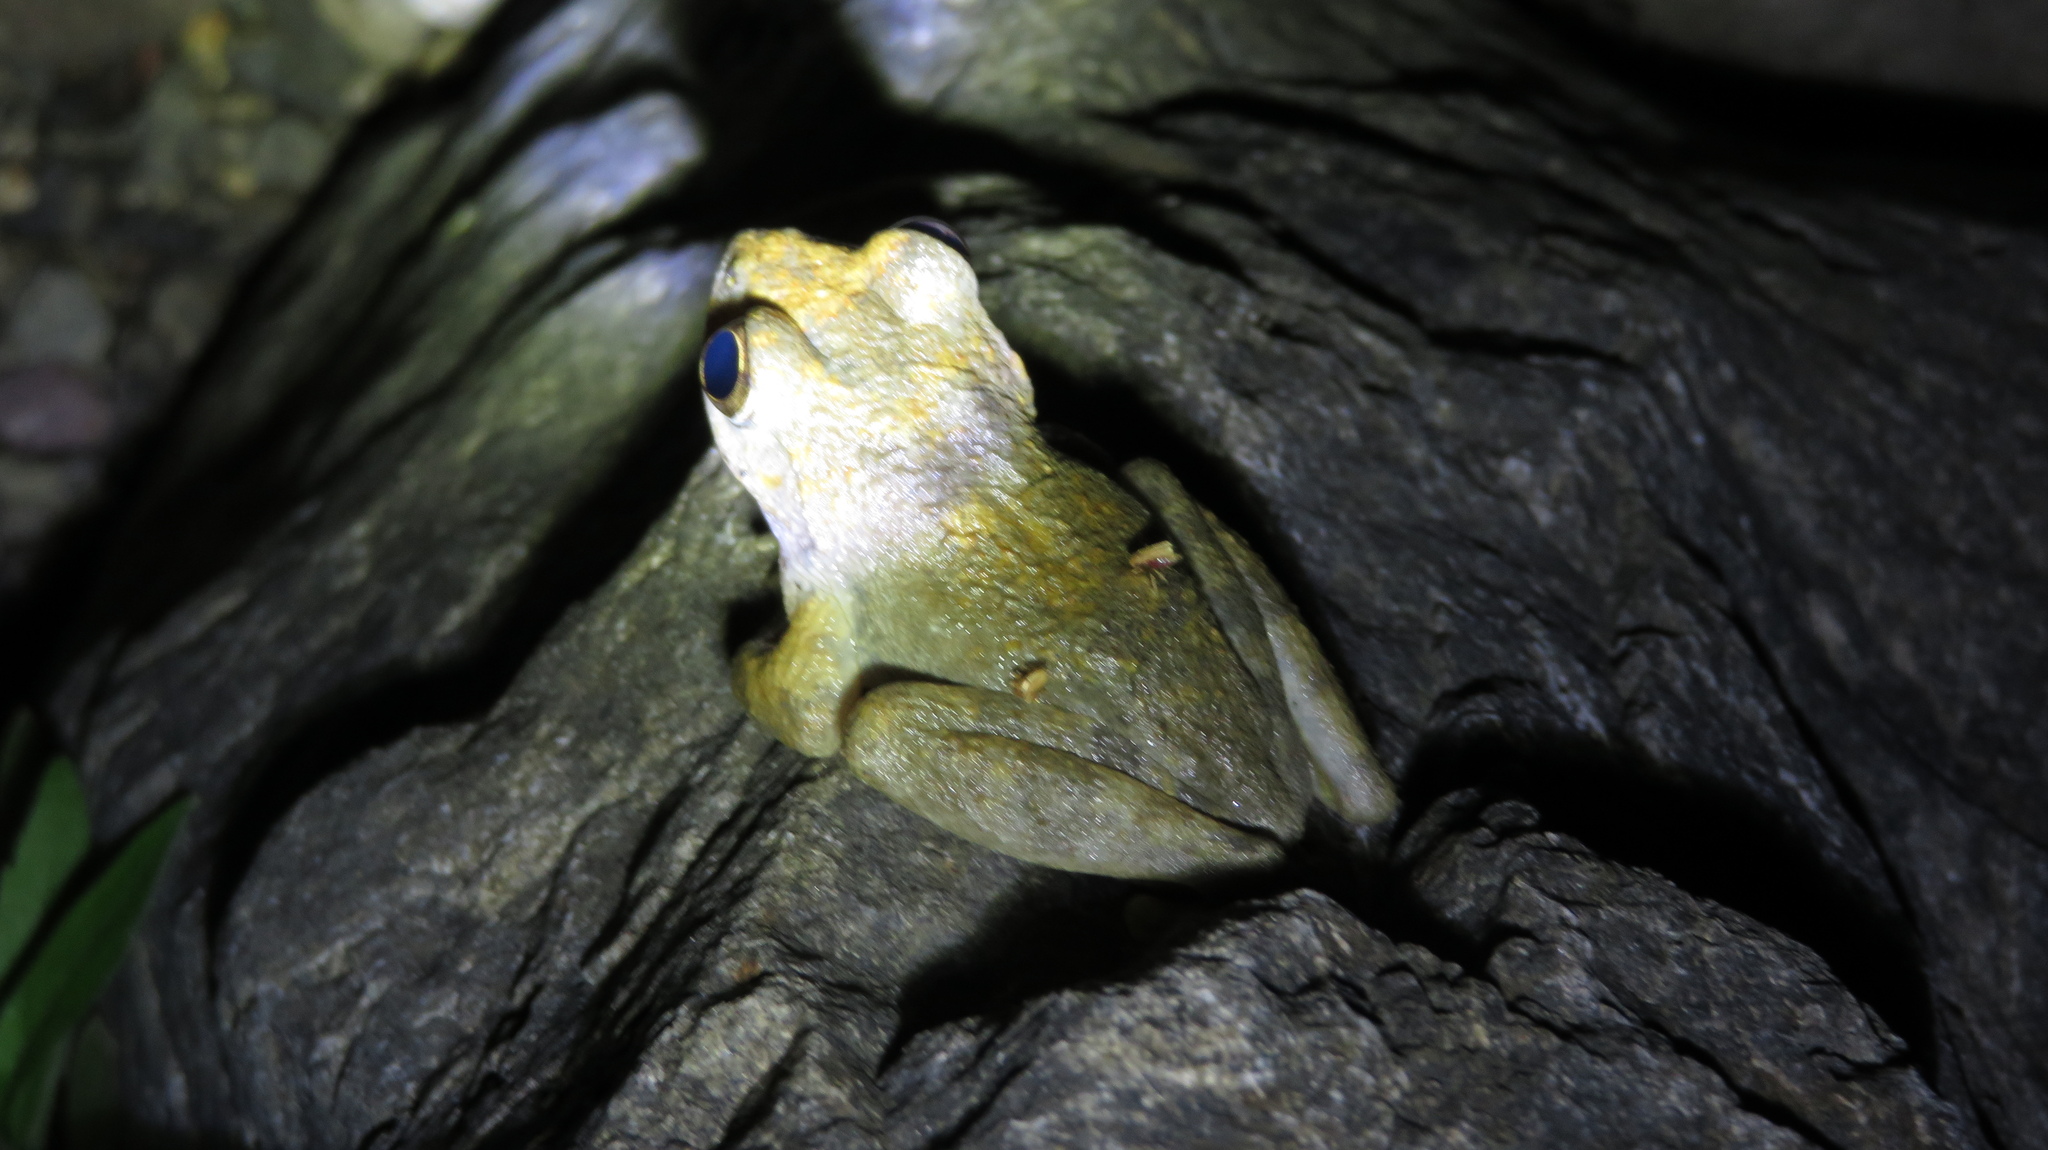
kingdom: Animalia
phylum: Chordata
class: Amphibia
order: Anura
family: Rhacophoridae
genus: Buergeria
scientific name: Buergeria buergeri
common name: Buerger's frog
